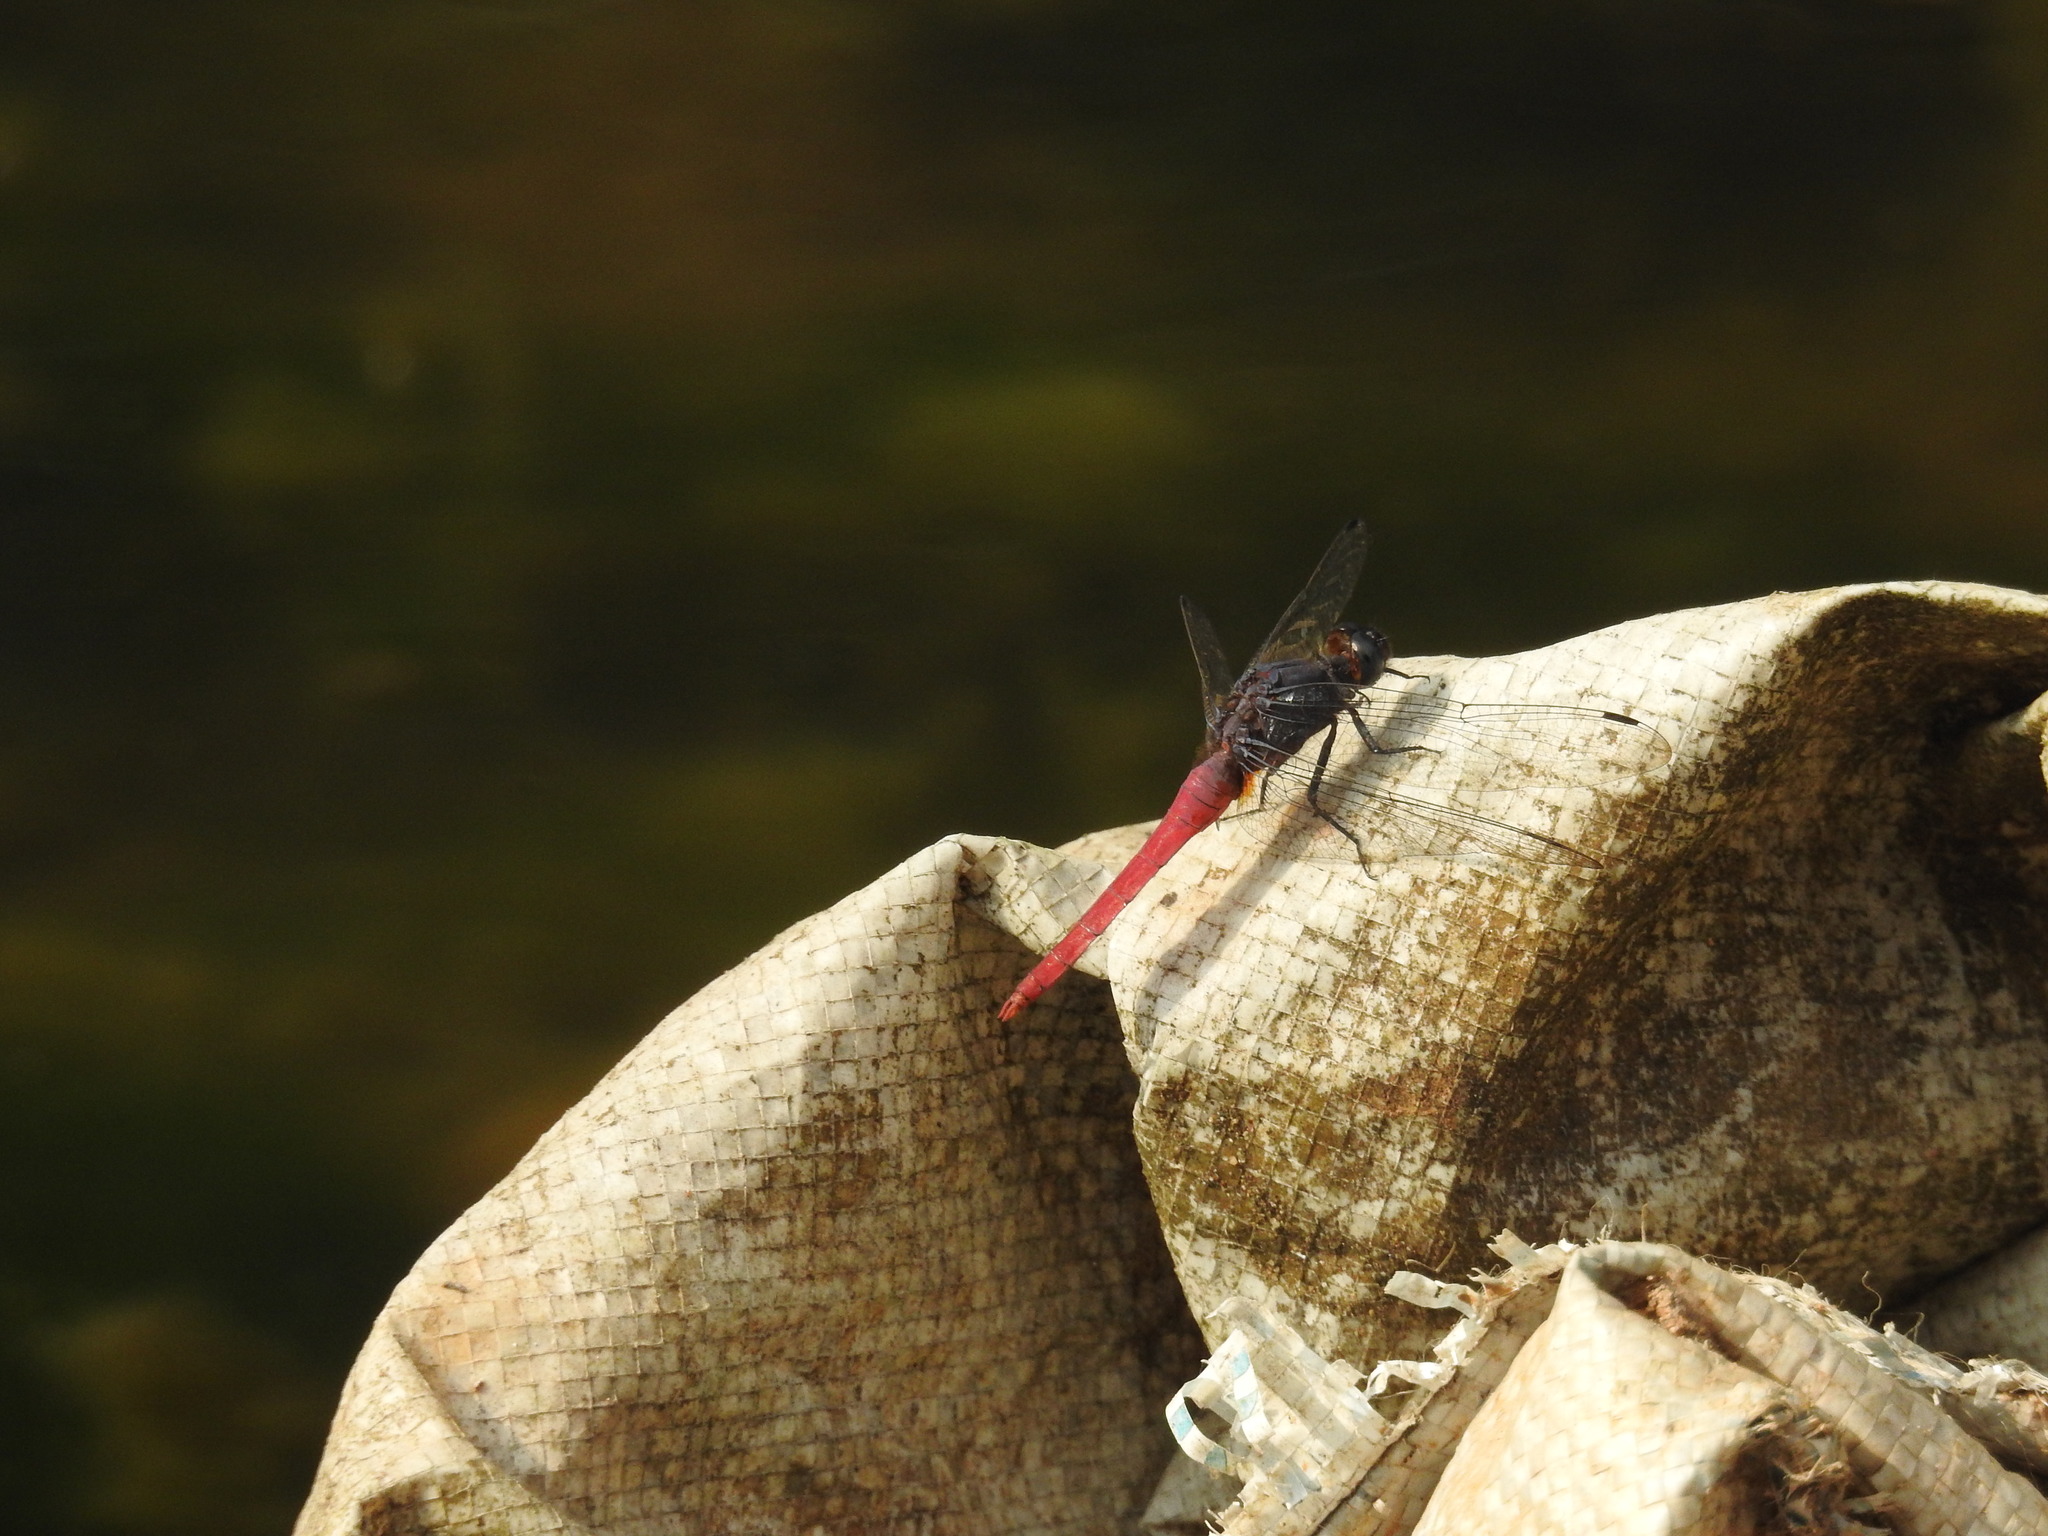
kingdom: Animalia
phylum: Arthropoda
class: Insecta
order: Odonata
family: Libellulidae
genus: Orthetrum
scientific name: Orthetrum pruinosum
